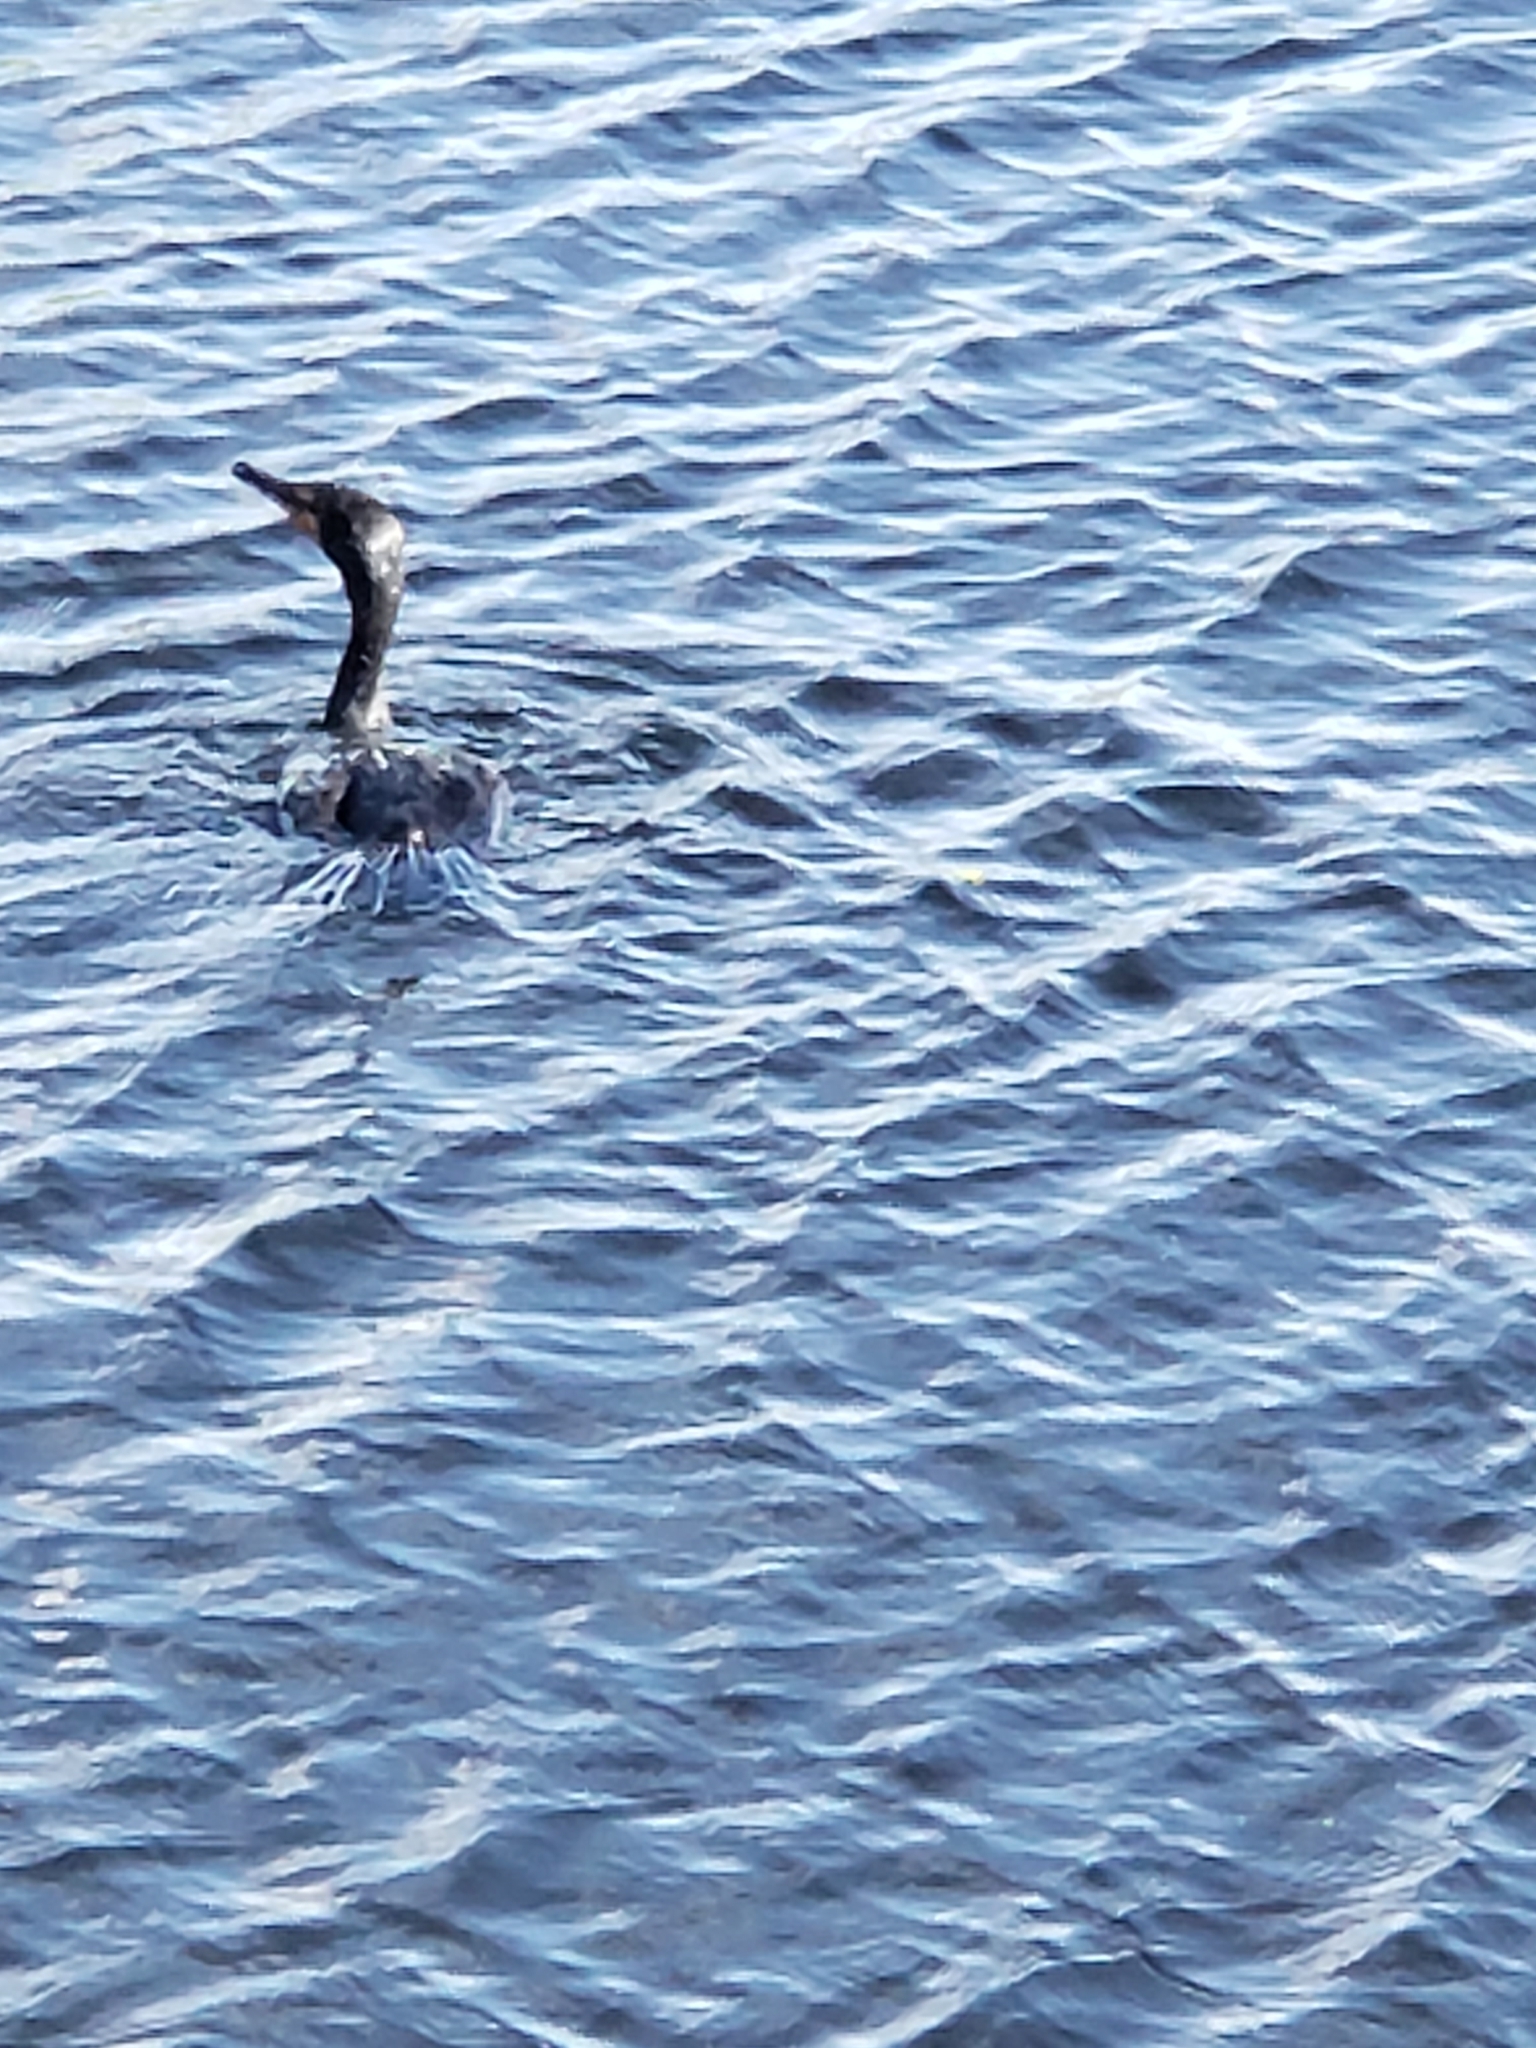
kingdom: Animalia
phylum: Chordata
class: Aves
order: Suliformes
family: Phalacrocoracidae
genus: Phalacrocorax
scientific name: Phalacrocorax auritus
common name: Double-crested cormorant
